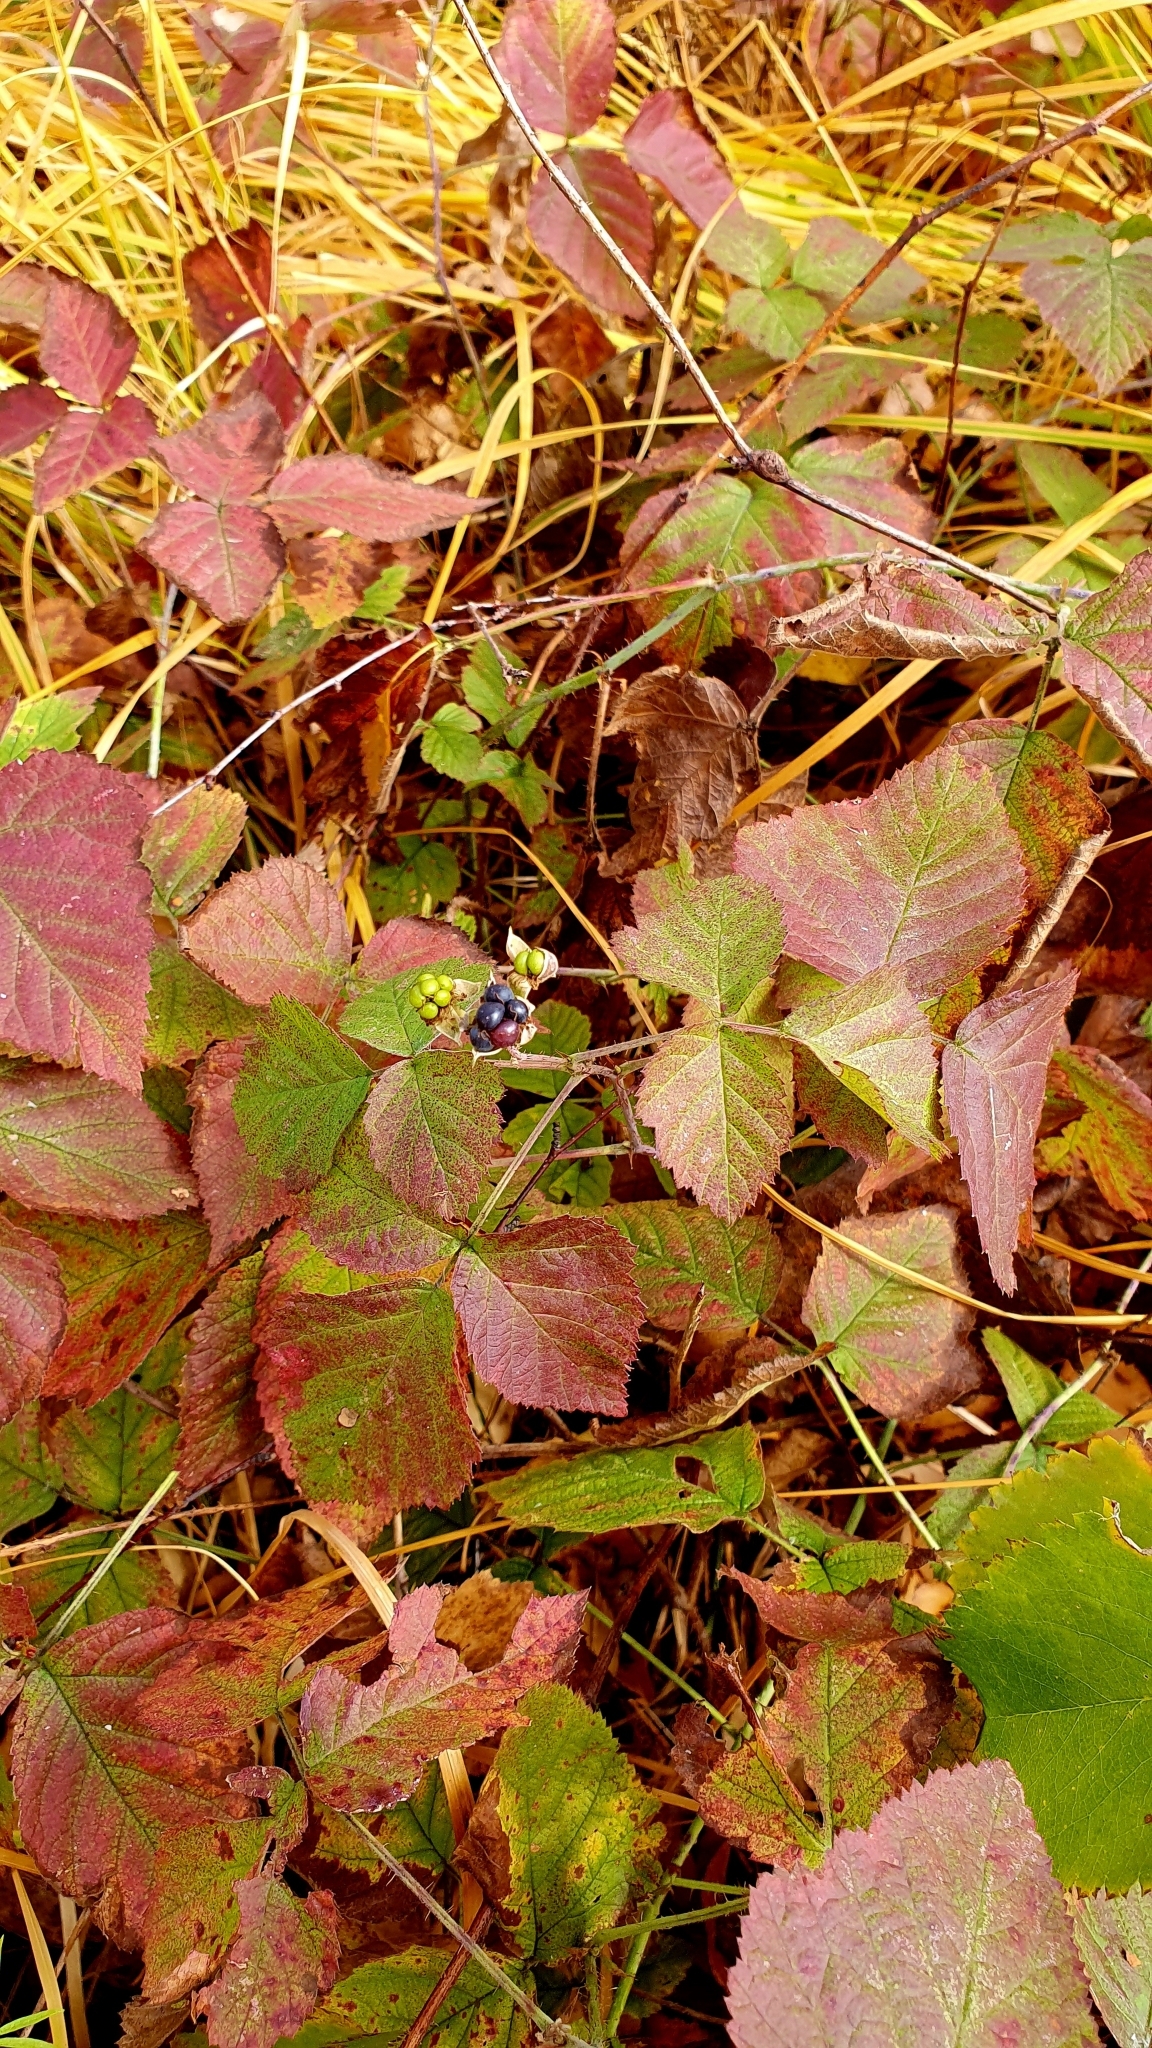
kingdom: Plantae
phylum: Tracheophyta
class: Magnoliopsida
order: Rosales
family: Rosaceae
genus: Rubus
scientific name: Rubus caesius
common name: Dewberry
